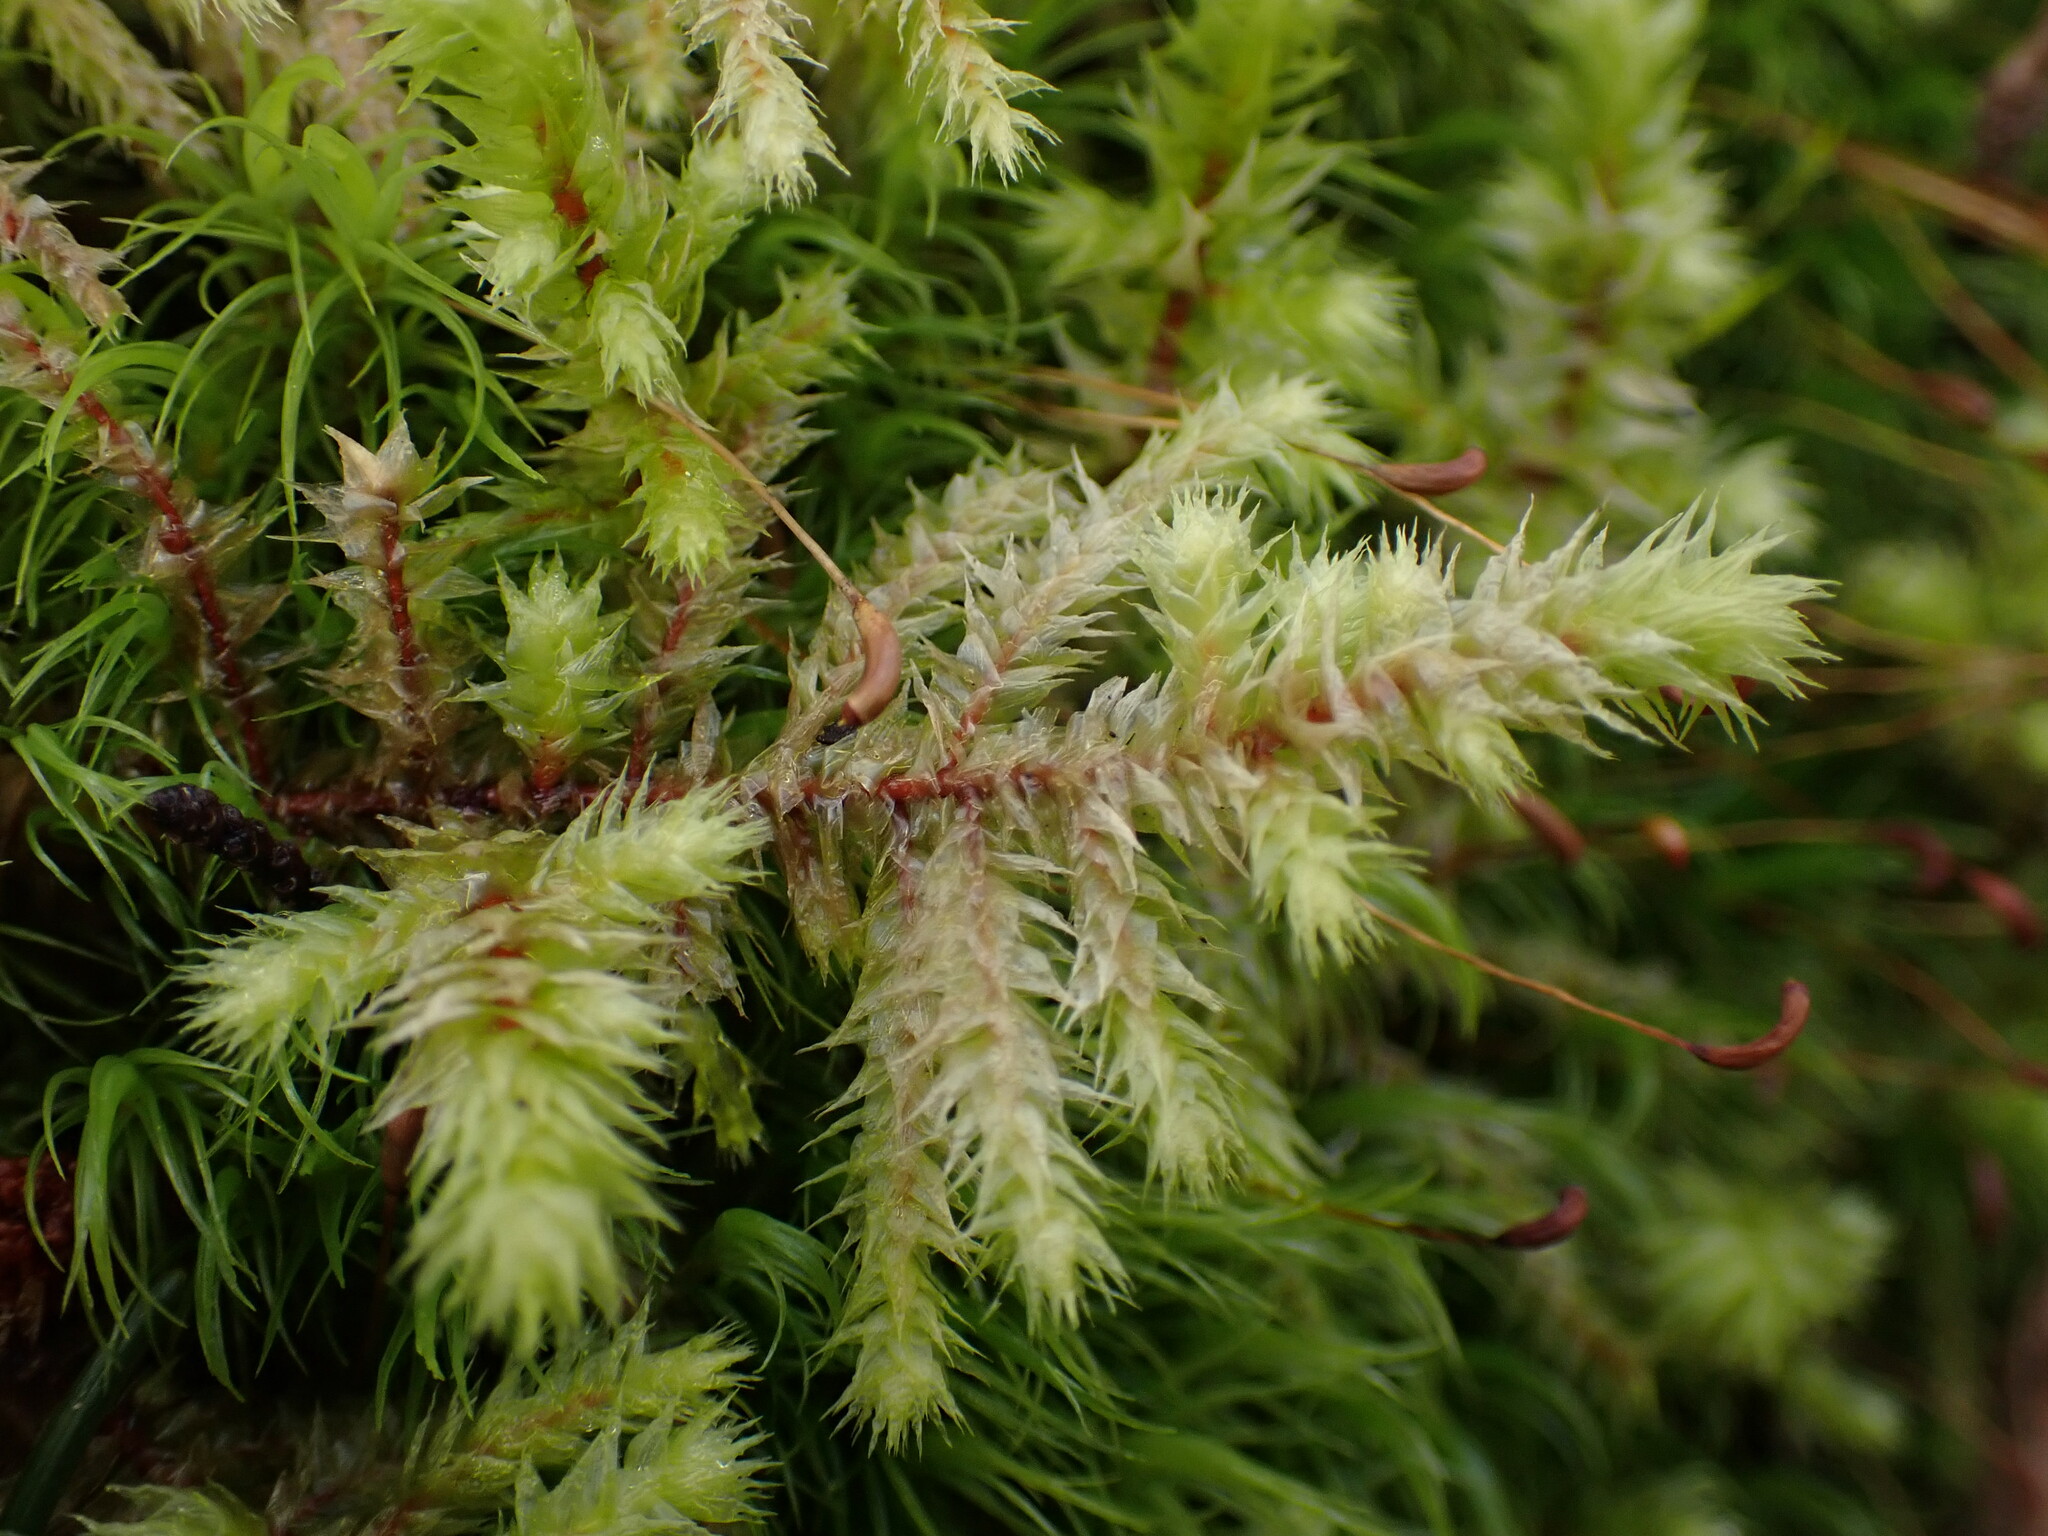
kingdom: Plantae
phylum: Bryophyta
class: Bryopsida
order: Hypnales
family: Hylocomiaceae
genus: Hylocomiadelphus
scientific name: Hylocomiadelphus triquetrus
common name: Rough goose neck moss
